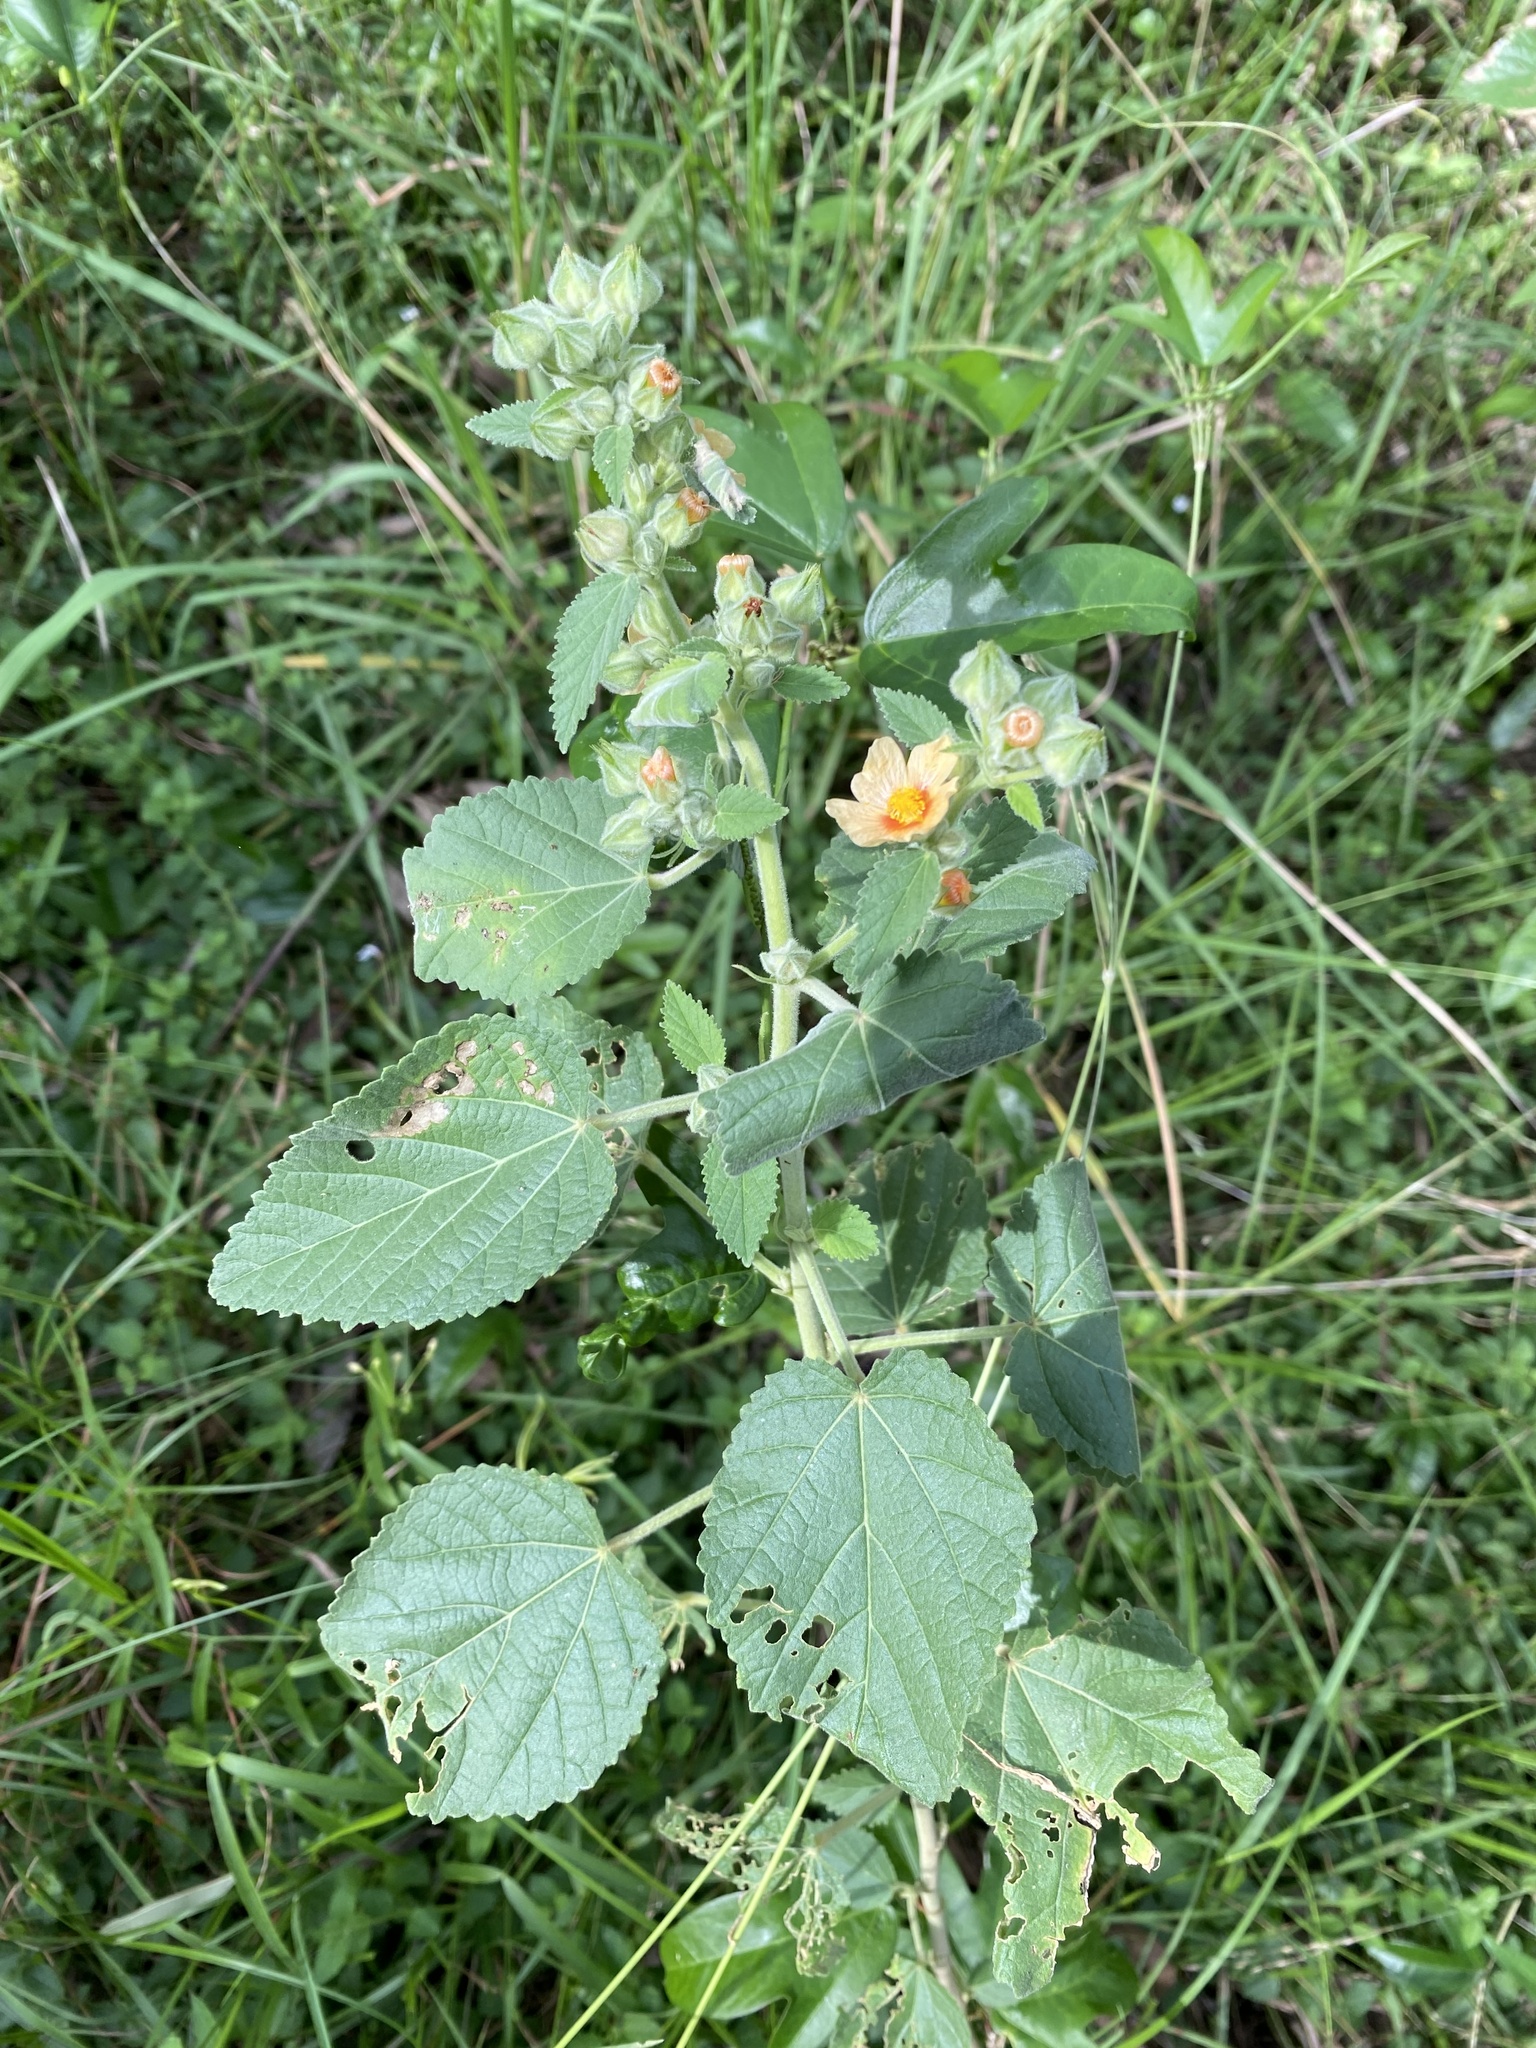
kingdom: Plantae
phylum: Tracheophyta
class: Magnoliopsida
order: Malvales
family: Malvaceae
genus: Sida
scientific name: Sida cordifolia
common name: Ilima
